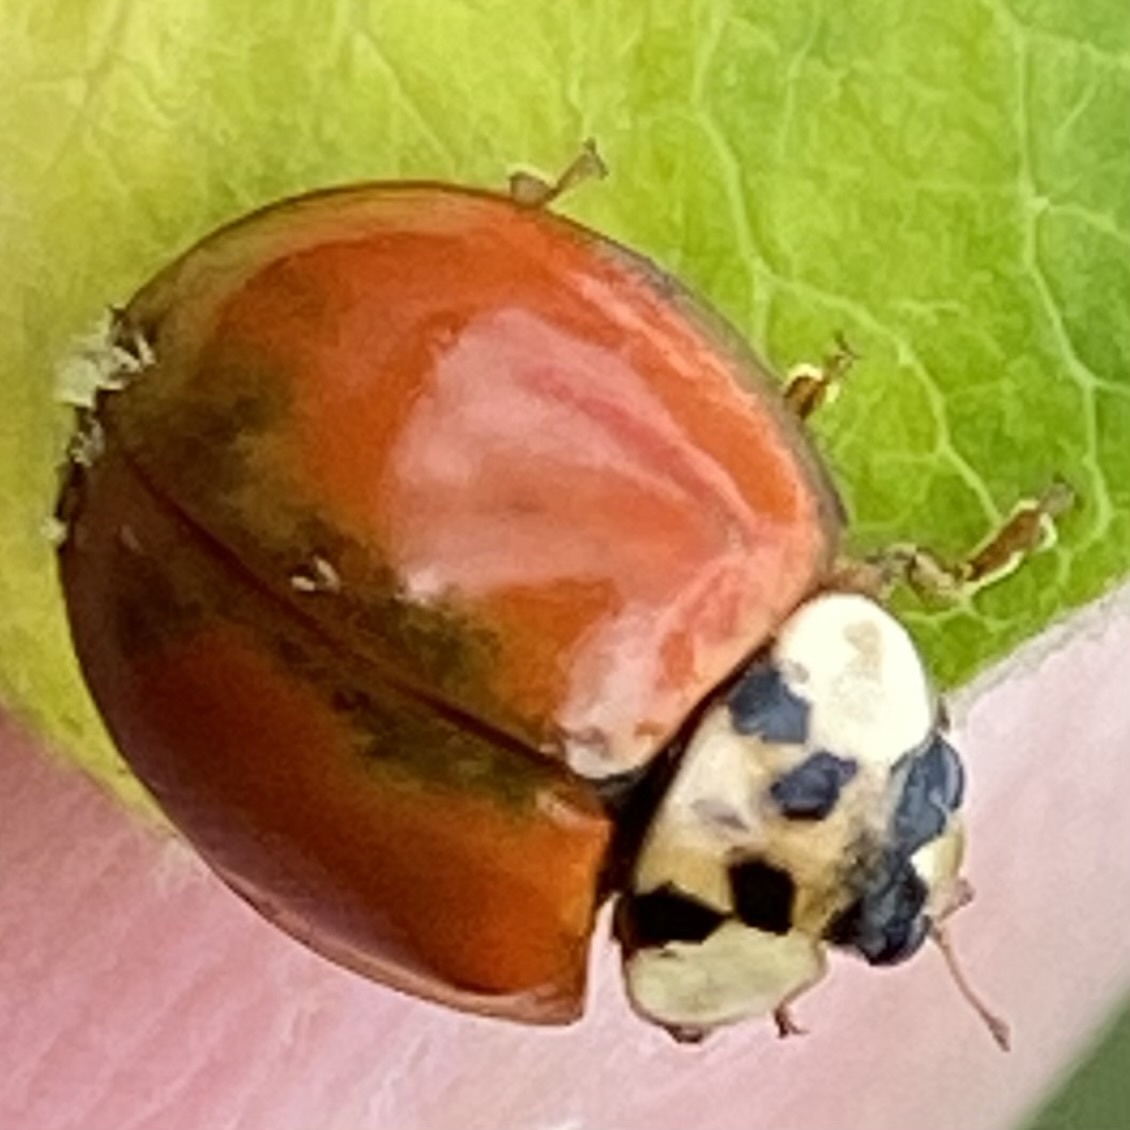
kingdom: Animalia
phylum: Arthropoda
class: Insecta
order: Coleoptera
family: Coccinellidae
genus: Harmonia
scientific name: Harmonia axyridis
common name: Harlequin ladybird
